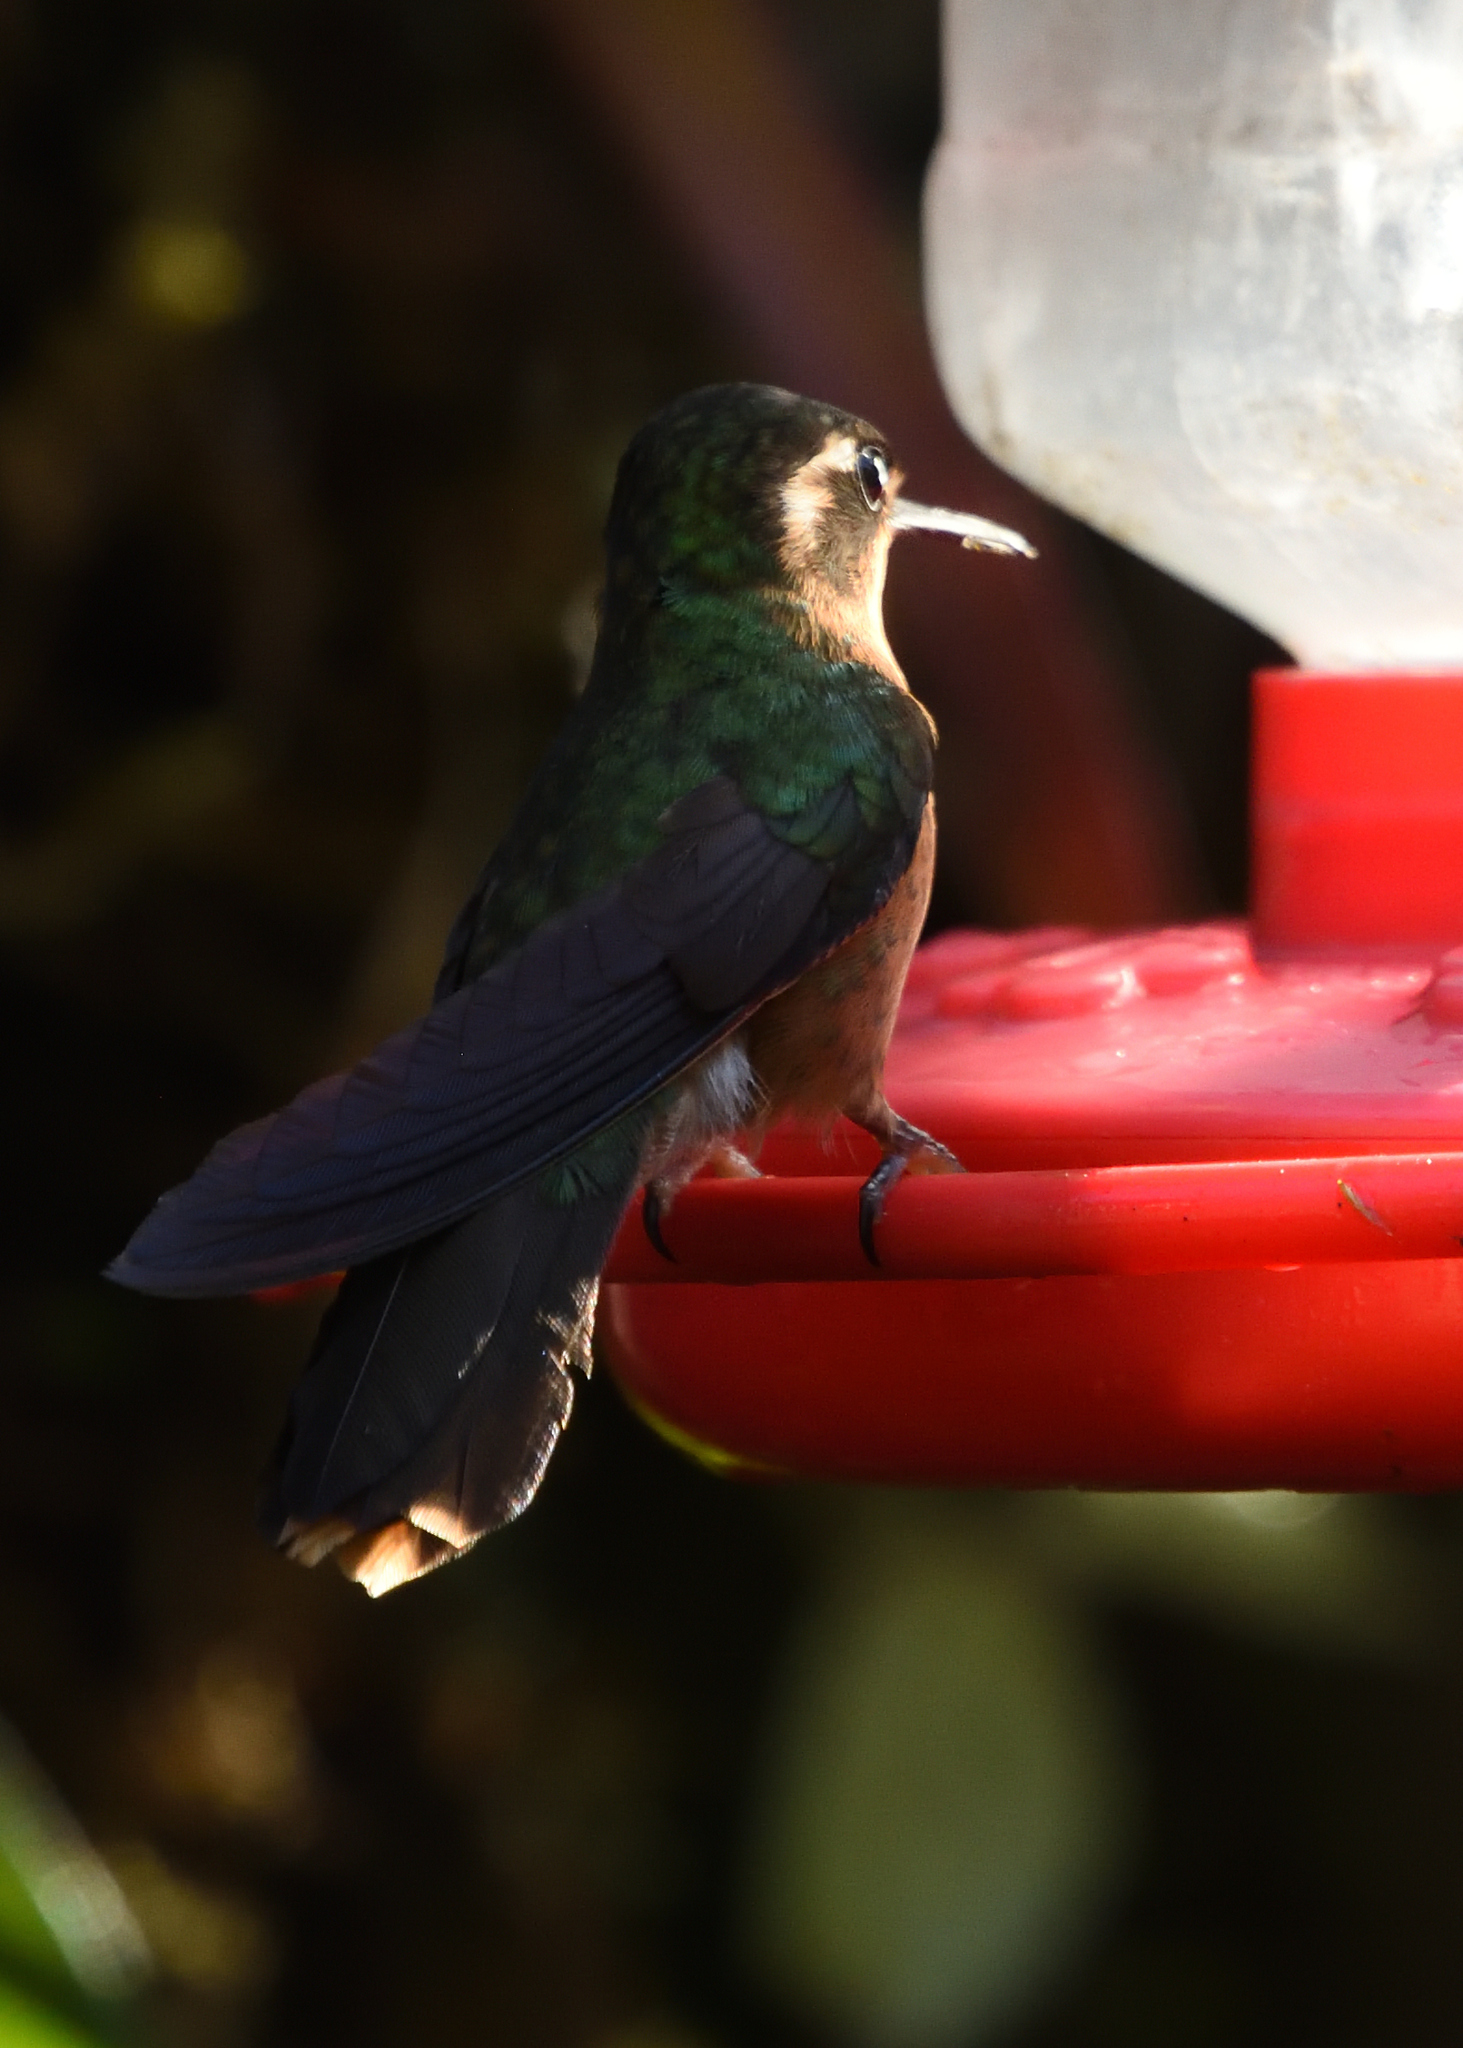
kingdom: Animalia
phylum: Chordata
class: Aves
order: Apodiformes
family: Trochilidae
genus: Adelomyia
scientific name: Adelomyia melanogenys
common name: Speckled hummingbird
